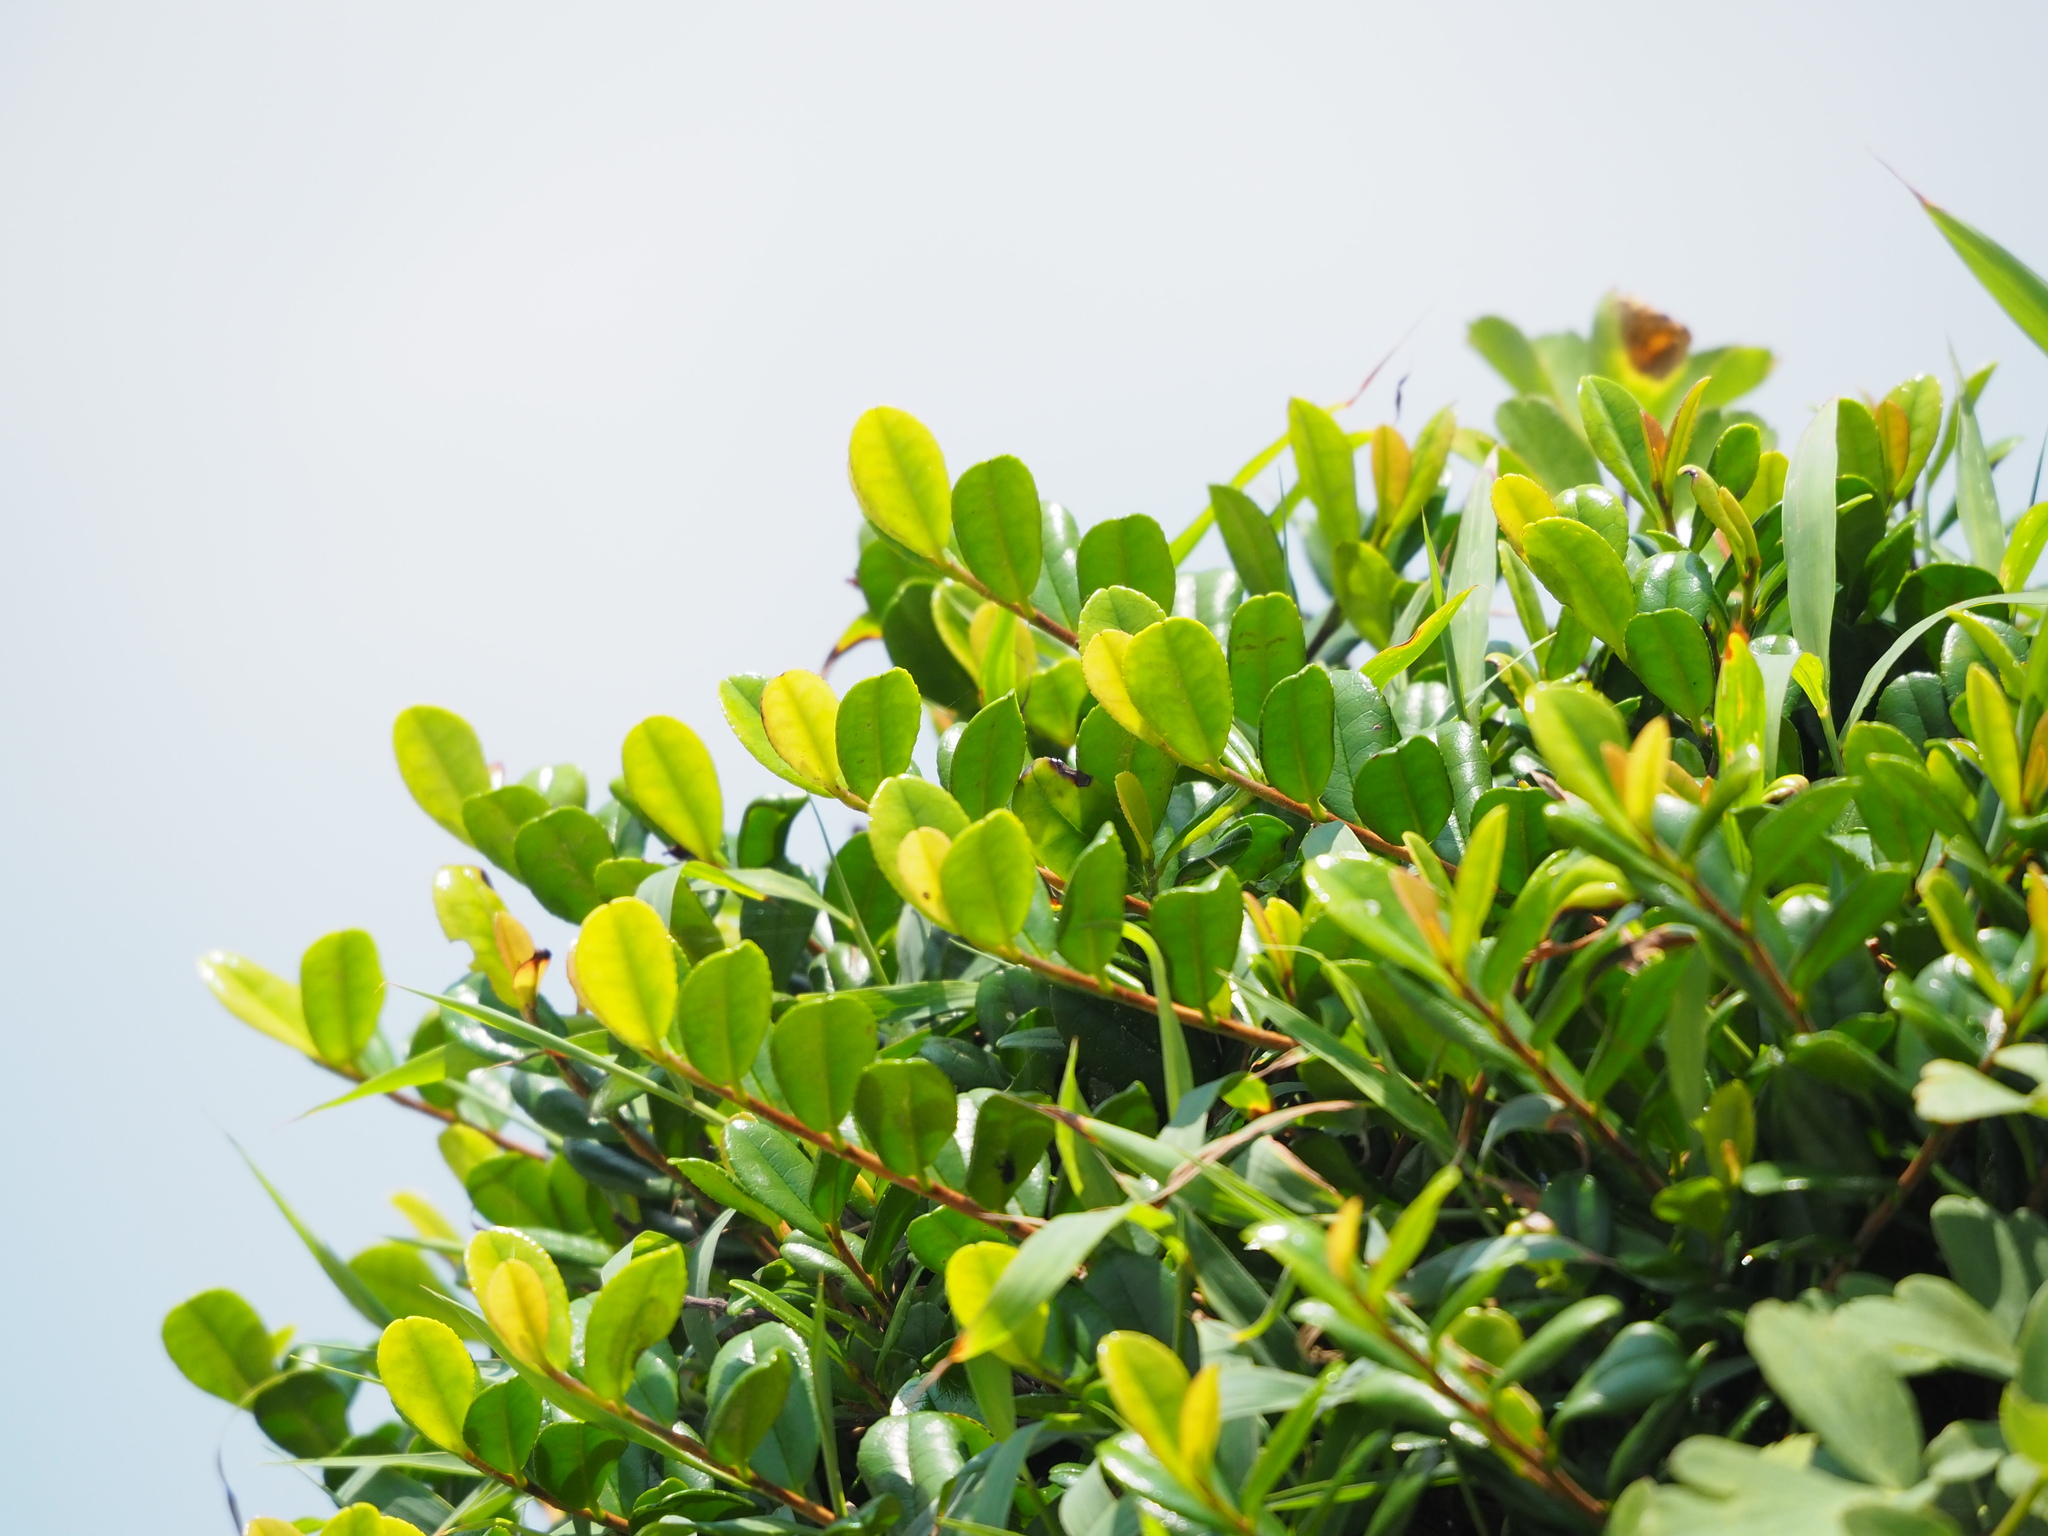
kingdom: Plantae
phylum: Tracheophyta
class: Magnoliopsida
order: Ericales
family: Pentaphylacaceae
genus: Eurya
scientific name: Eurya emarginata
